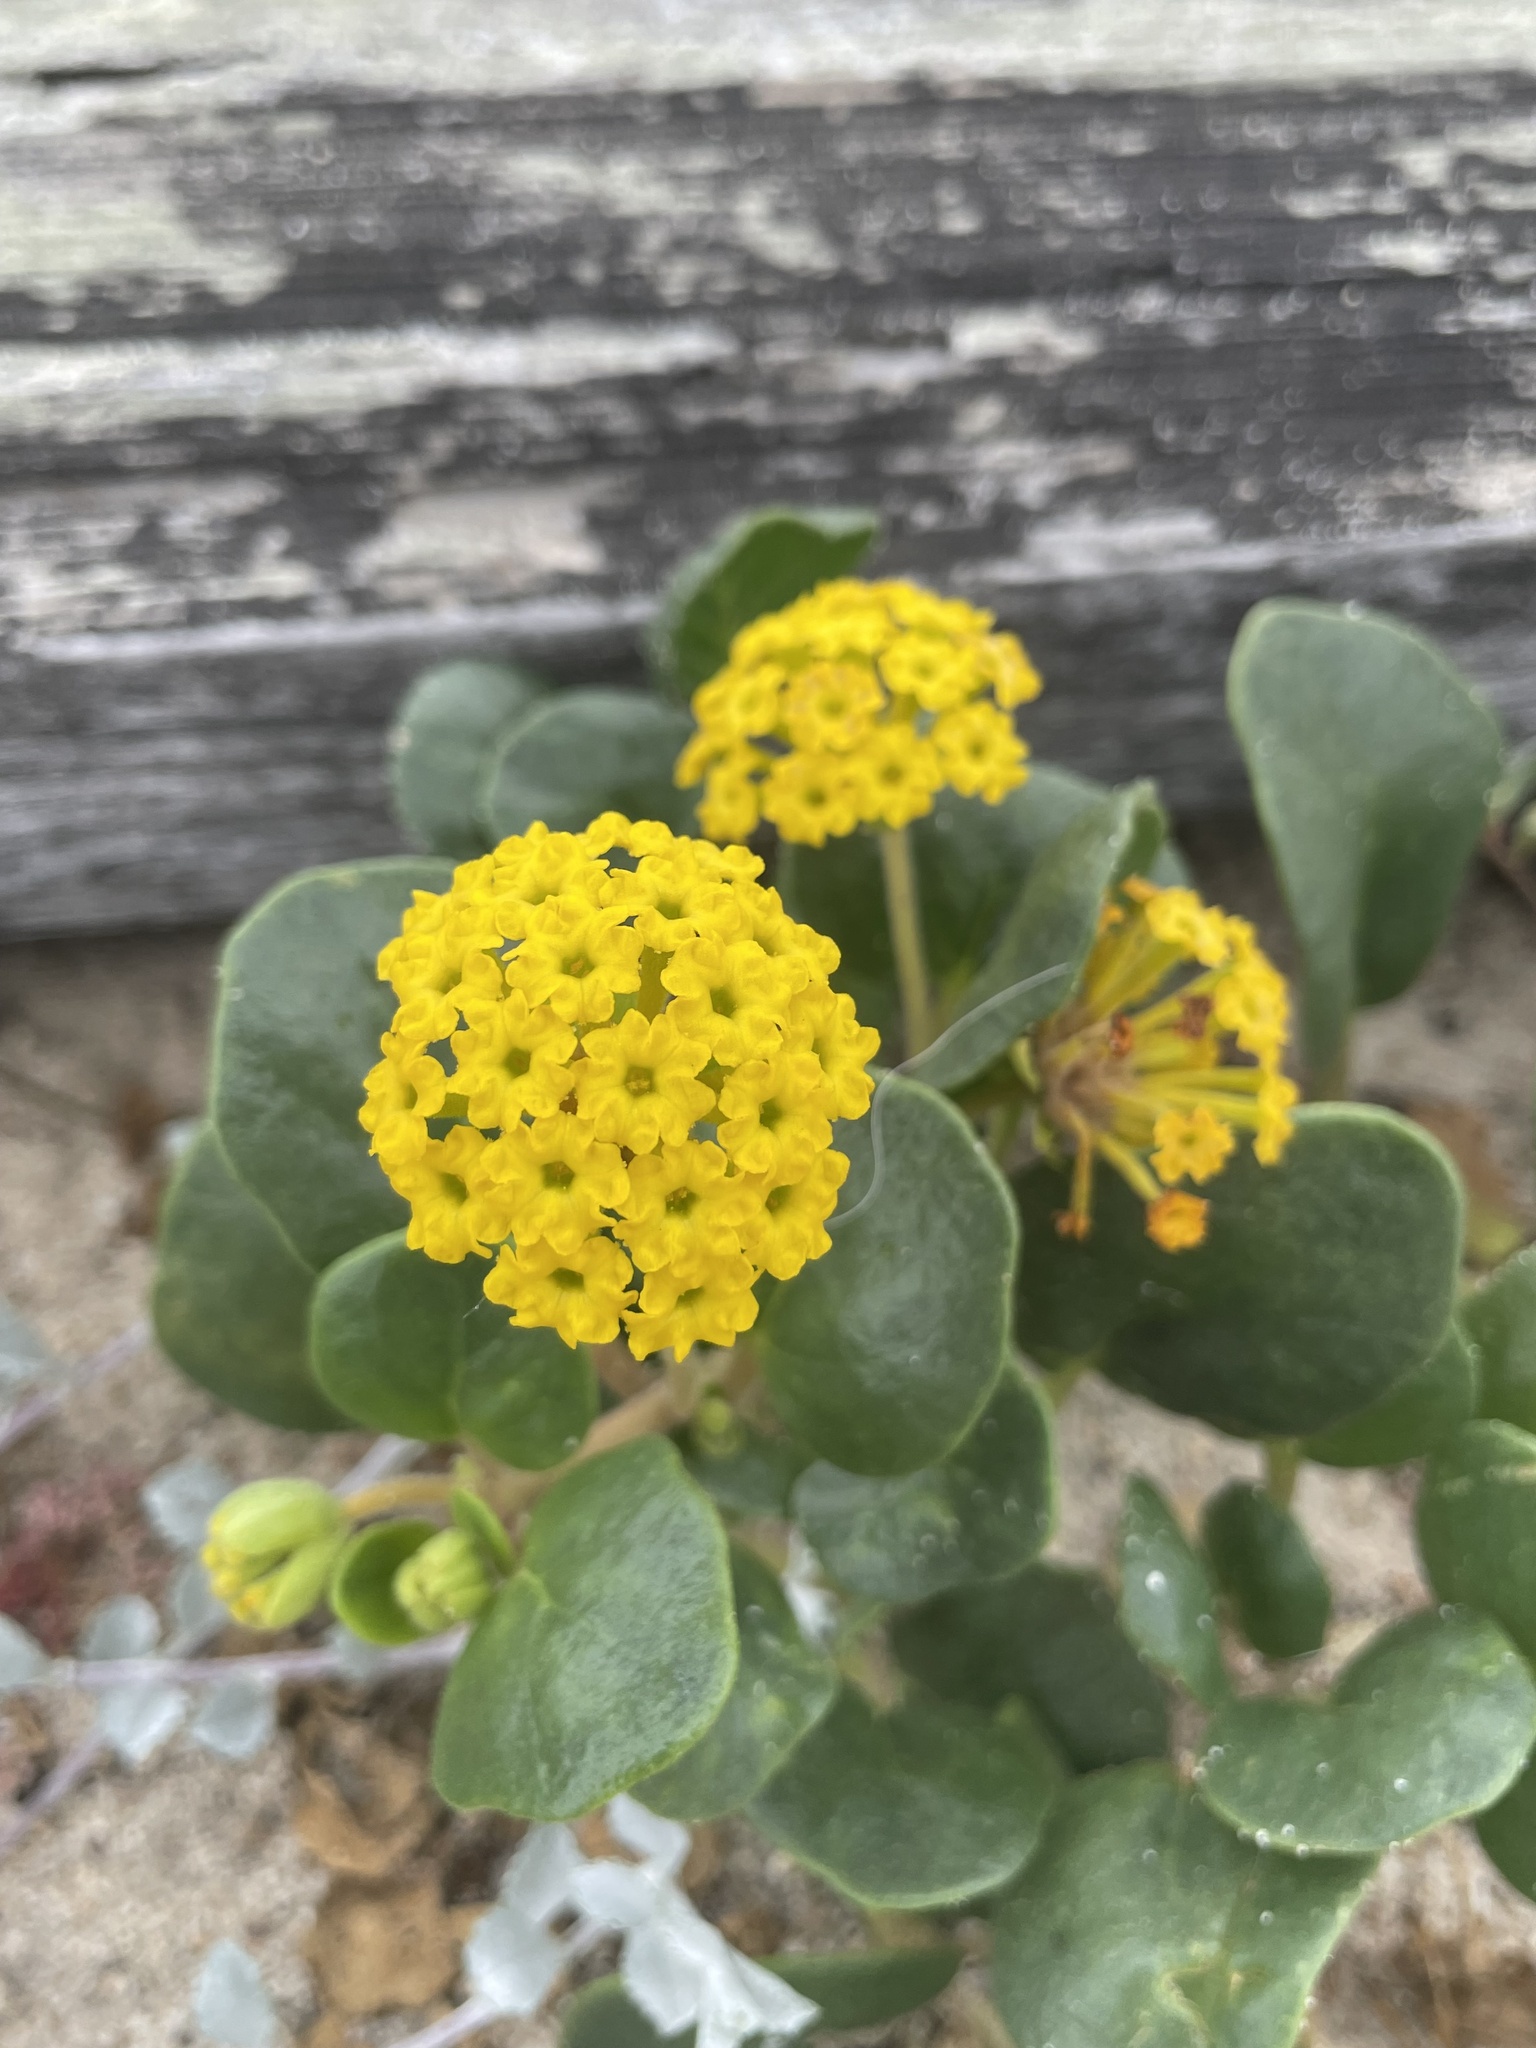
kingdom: Plantae
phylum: Tracheophyta
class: Magnoliopsida
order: Caryophyllales
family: Nyctaginaceae
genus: Abronia
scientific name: Abronia latifolia
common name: Yellow sand-verbena
